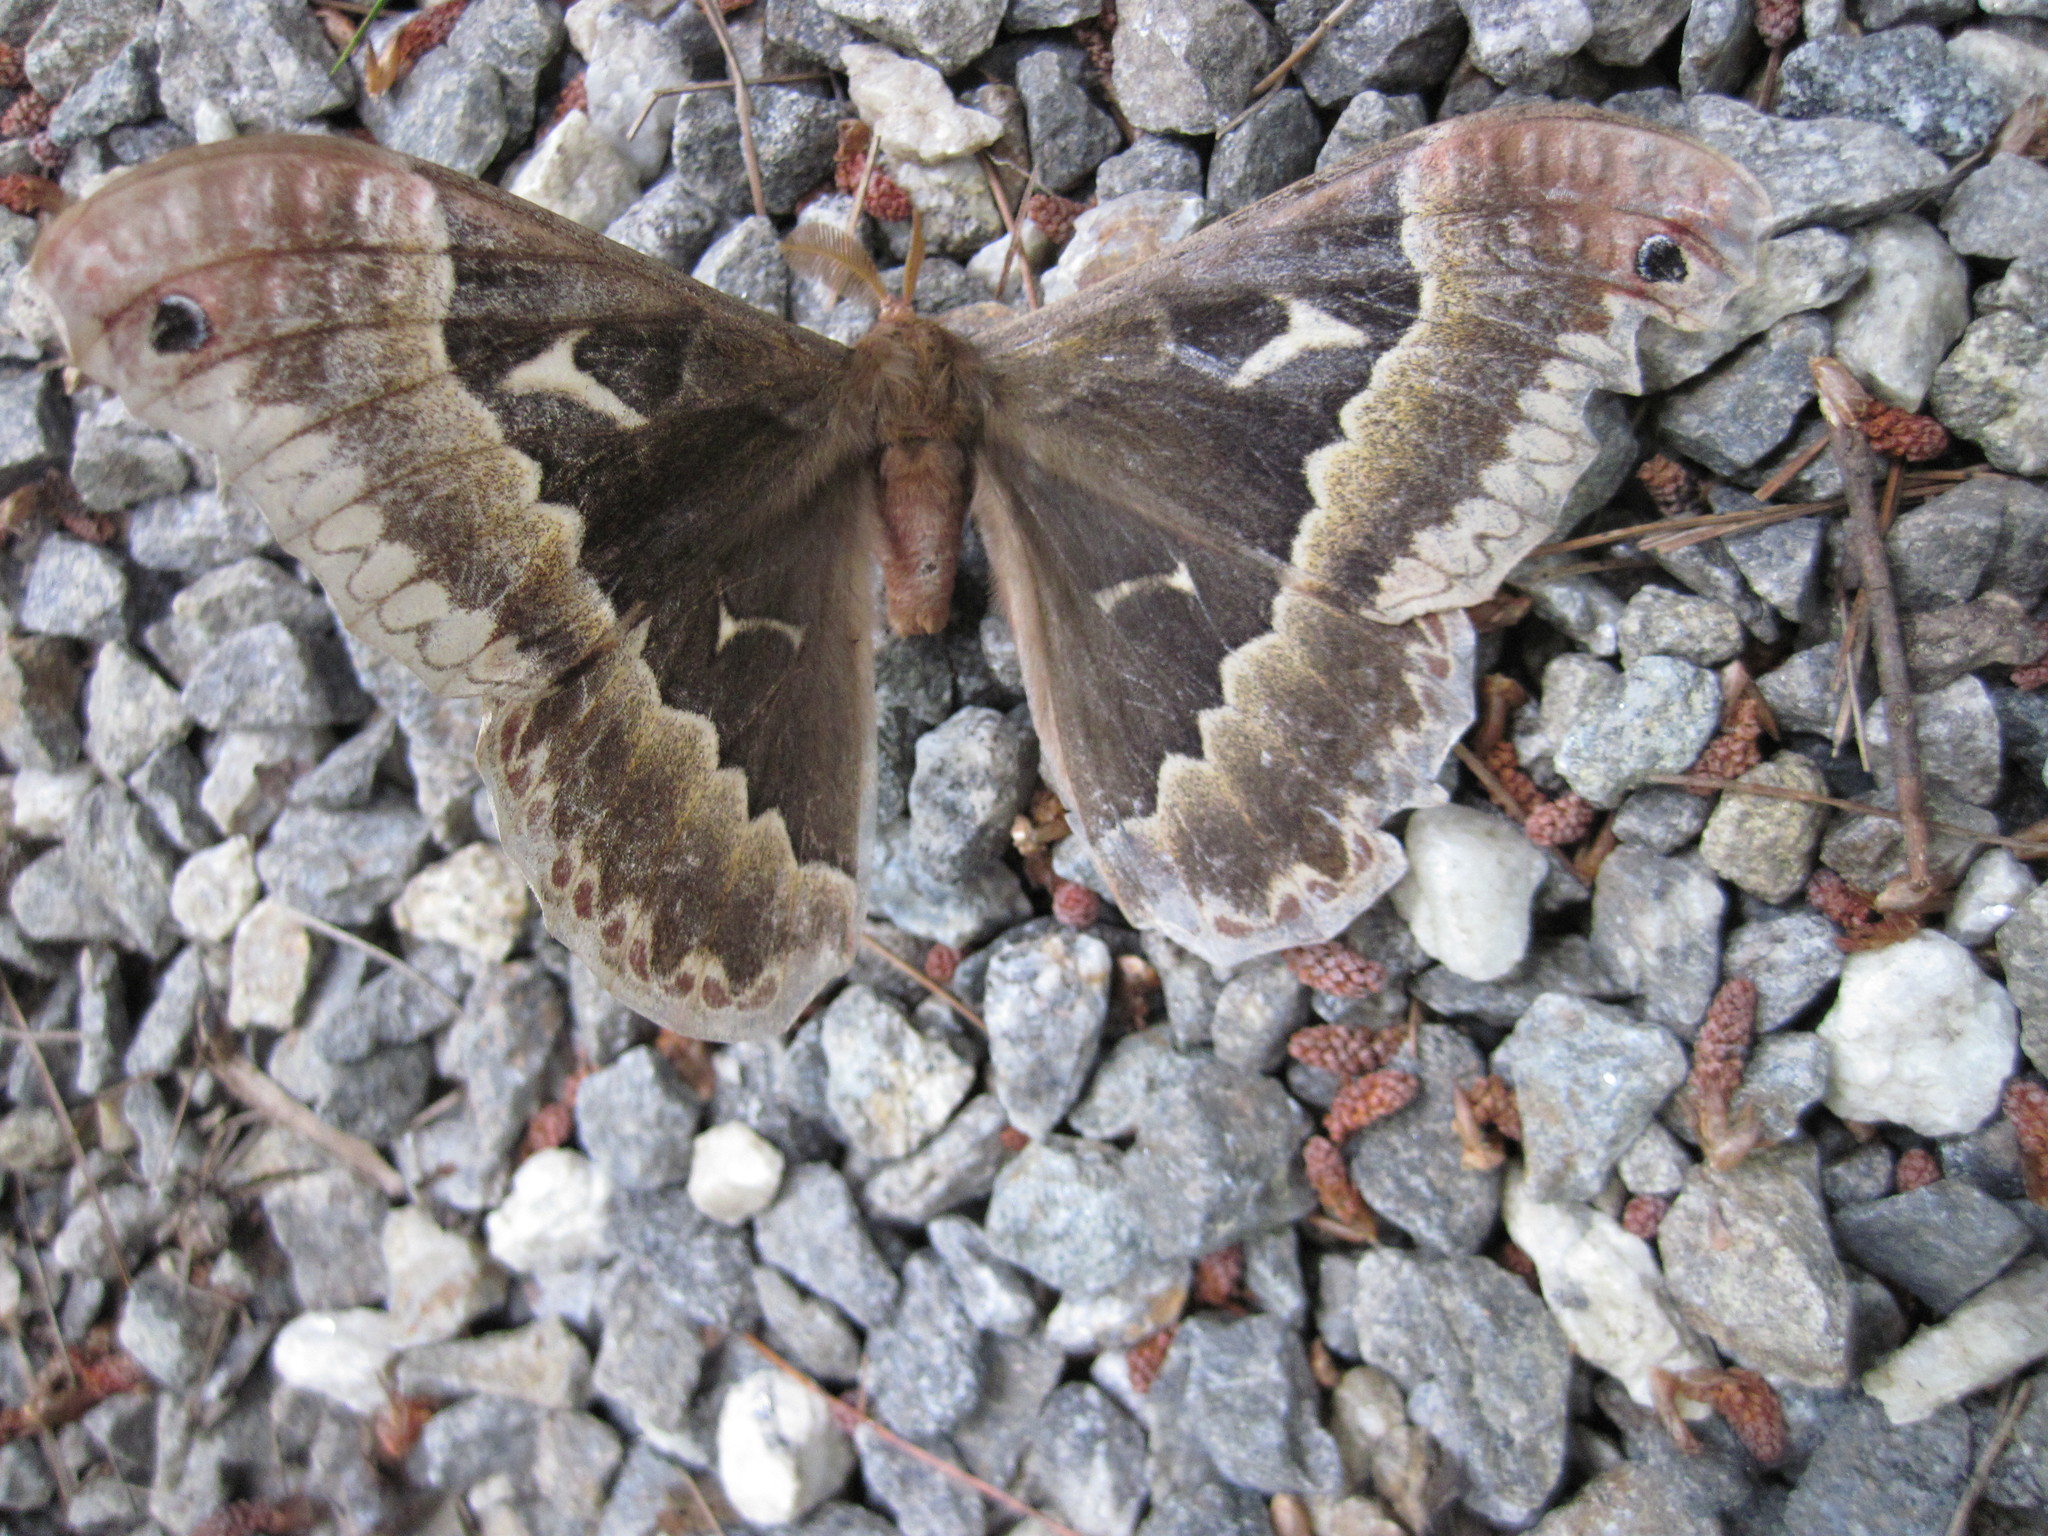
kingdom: Animalia
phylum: Arthropoda
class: Insecta
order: Lepidoptera
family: Saturniidae
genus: Callosamia
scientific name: Callosamia angulifera
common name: Tulip tree silkmoth
